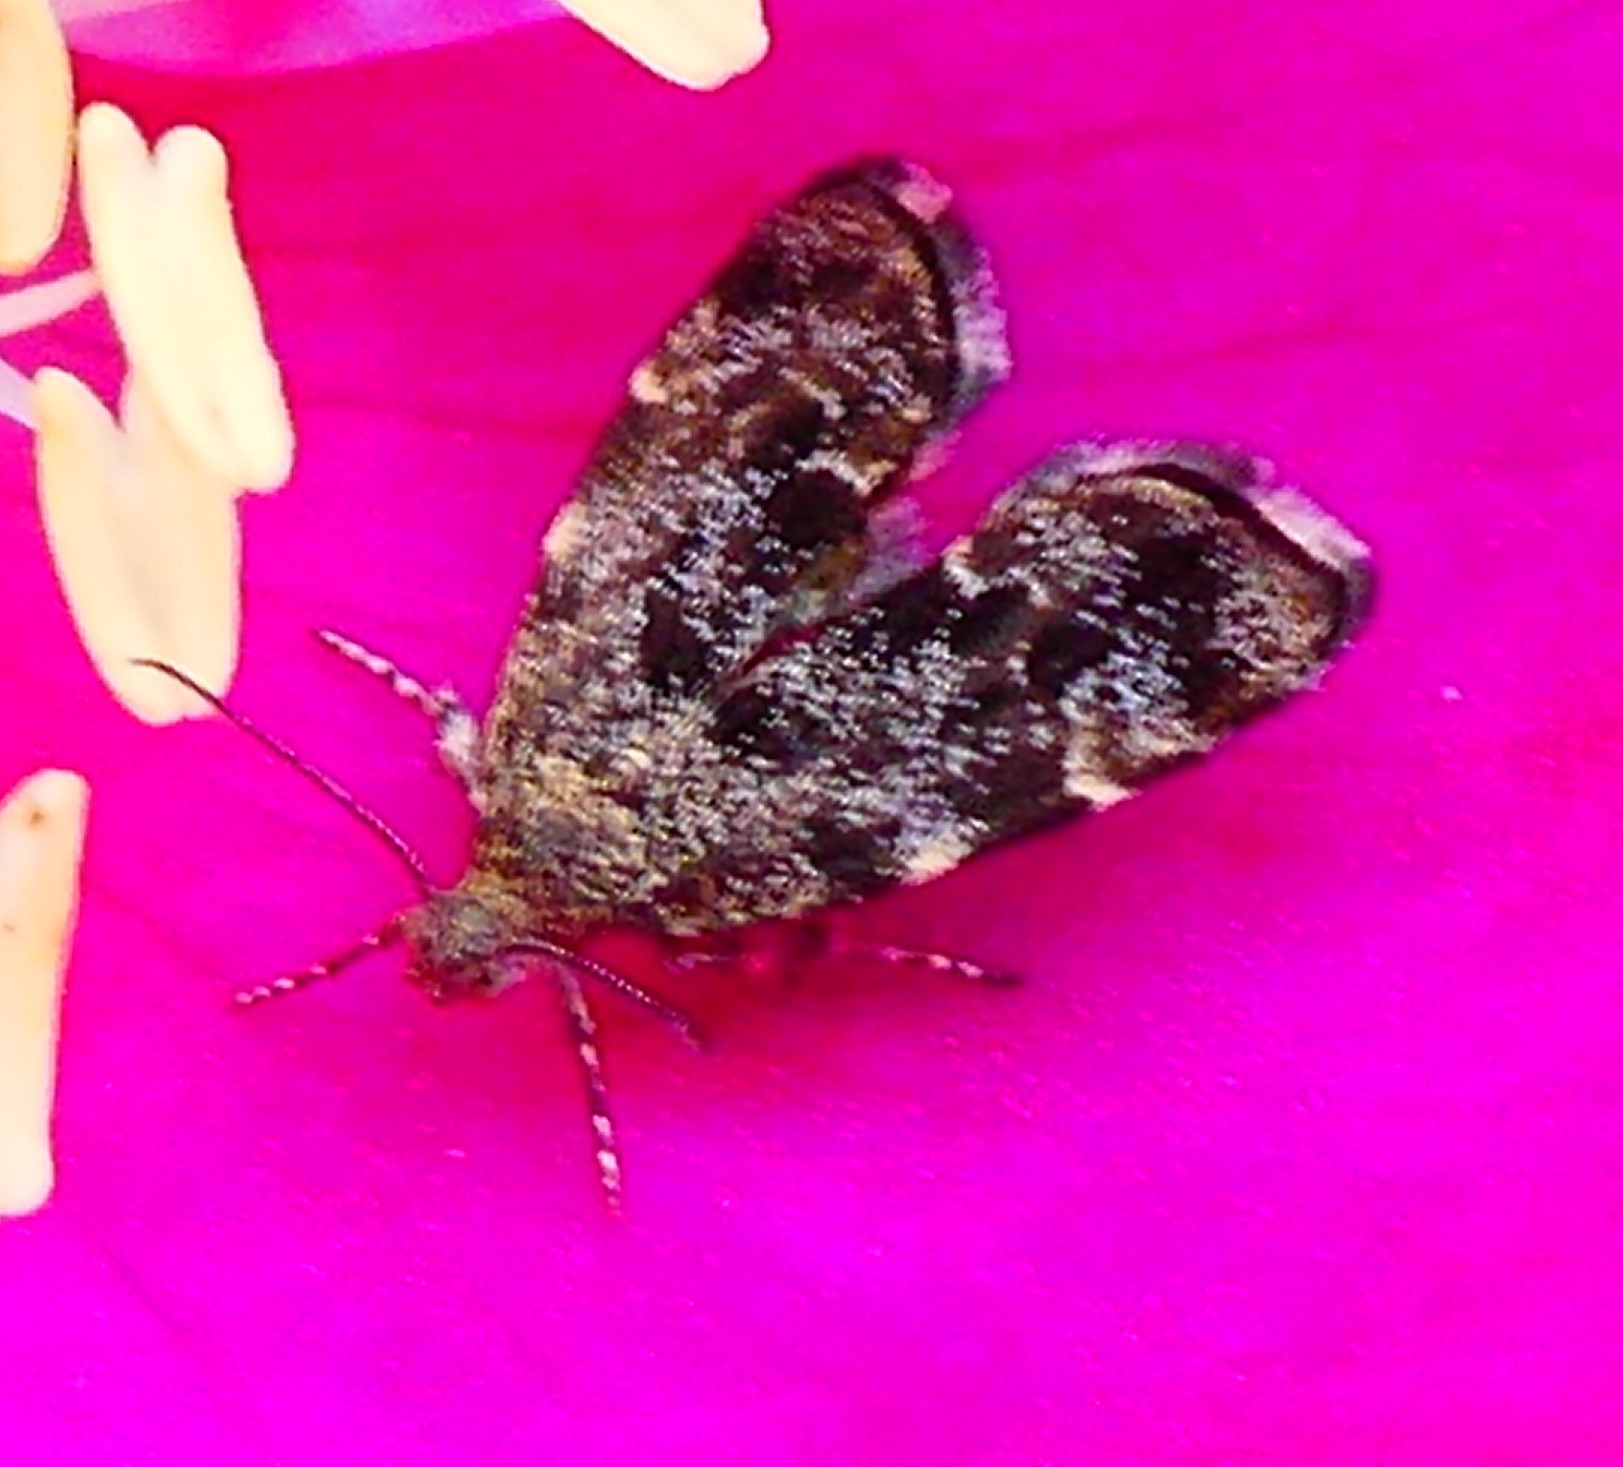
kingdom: Animalia
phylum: Arthropoda
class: Insecta
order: Lepidoptera
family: Choreutidae
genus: Anthophila
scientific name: Anthophila fabriciana
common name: Nettle-tap
